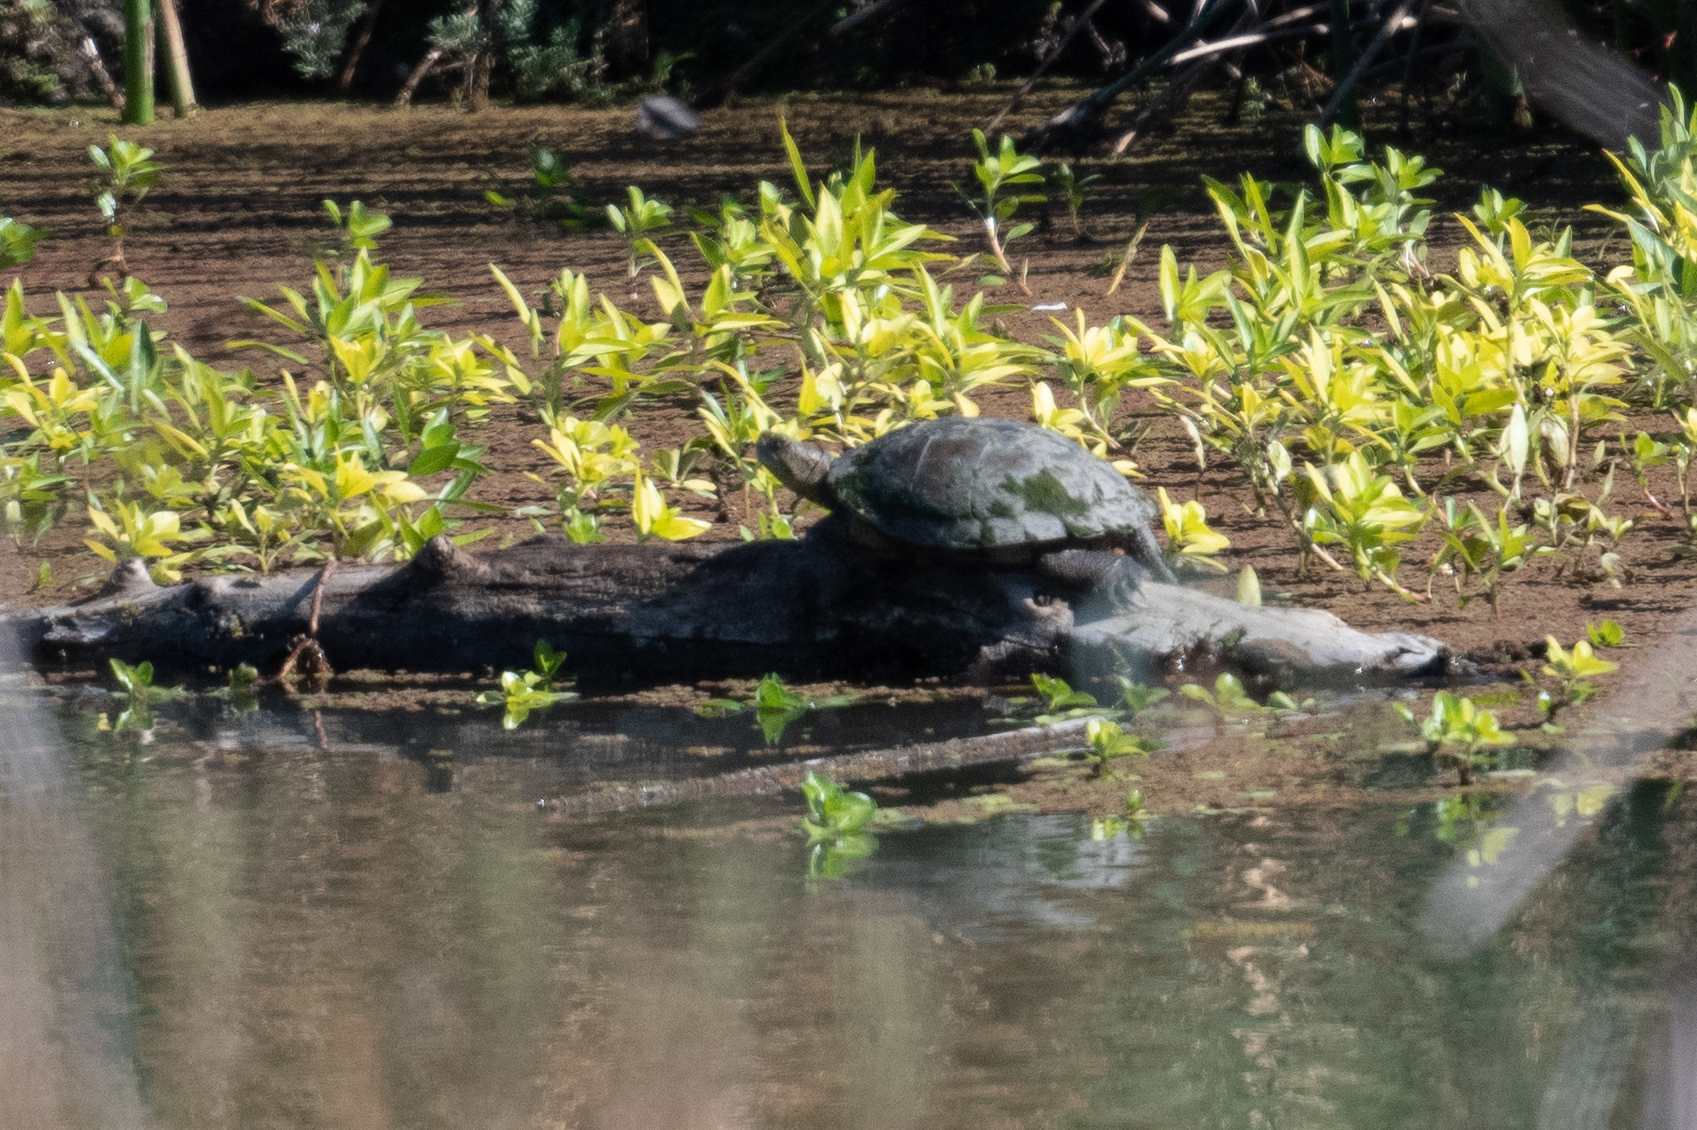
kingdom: Animalia
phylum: Chordata
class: Testudines
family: Emydidae
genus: Actinemys
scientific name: Actinemys marmorata
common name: Western pond turtle
